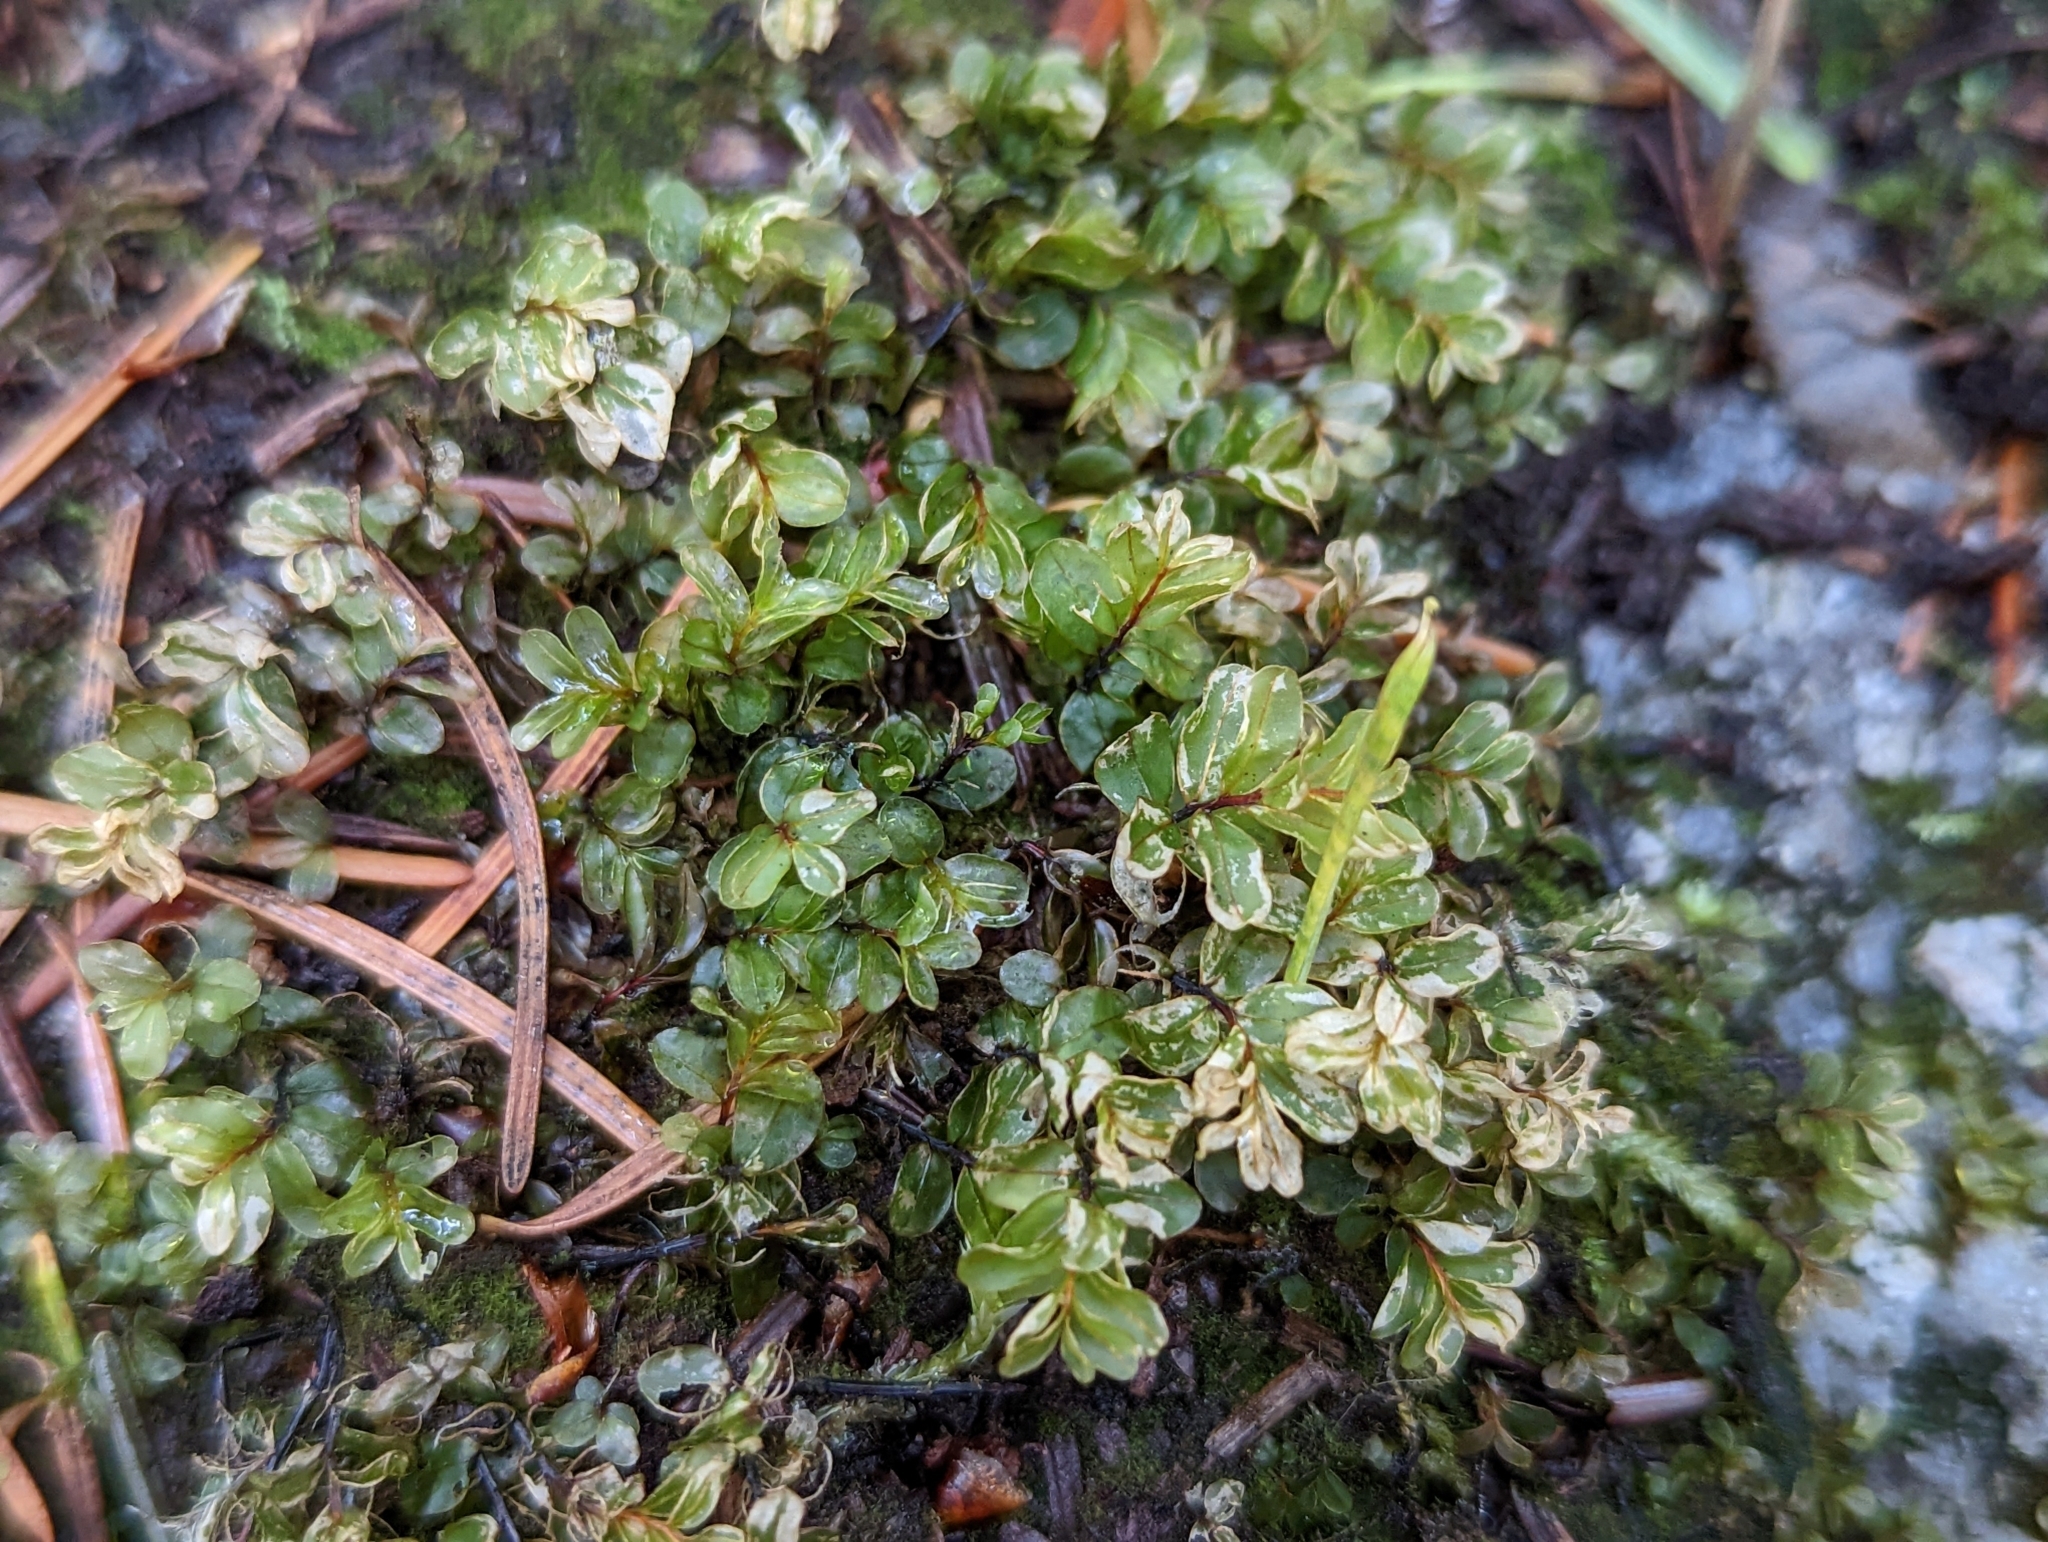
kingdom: Plantae
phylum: Bryophyta
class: Bryopsida
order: Bryales
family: Mniaceae
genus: Rhizomnium
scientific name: Rhizomnium glabrescens
